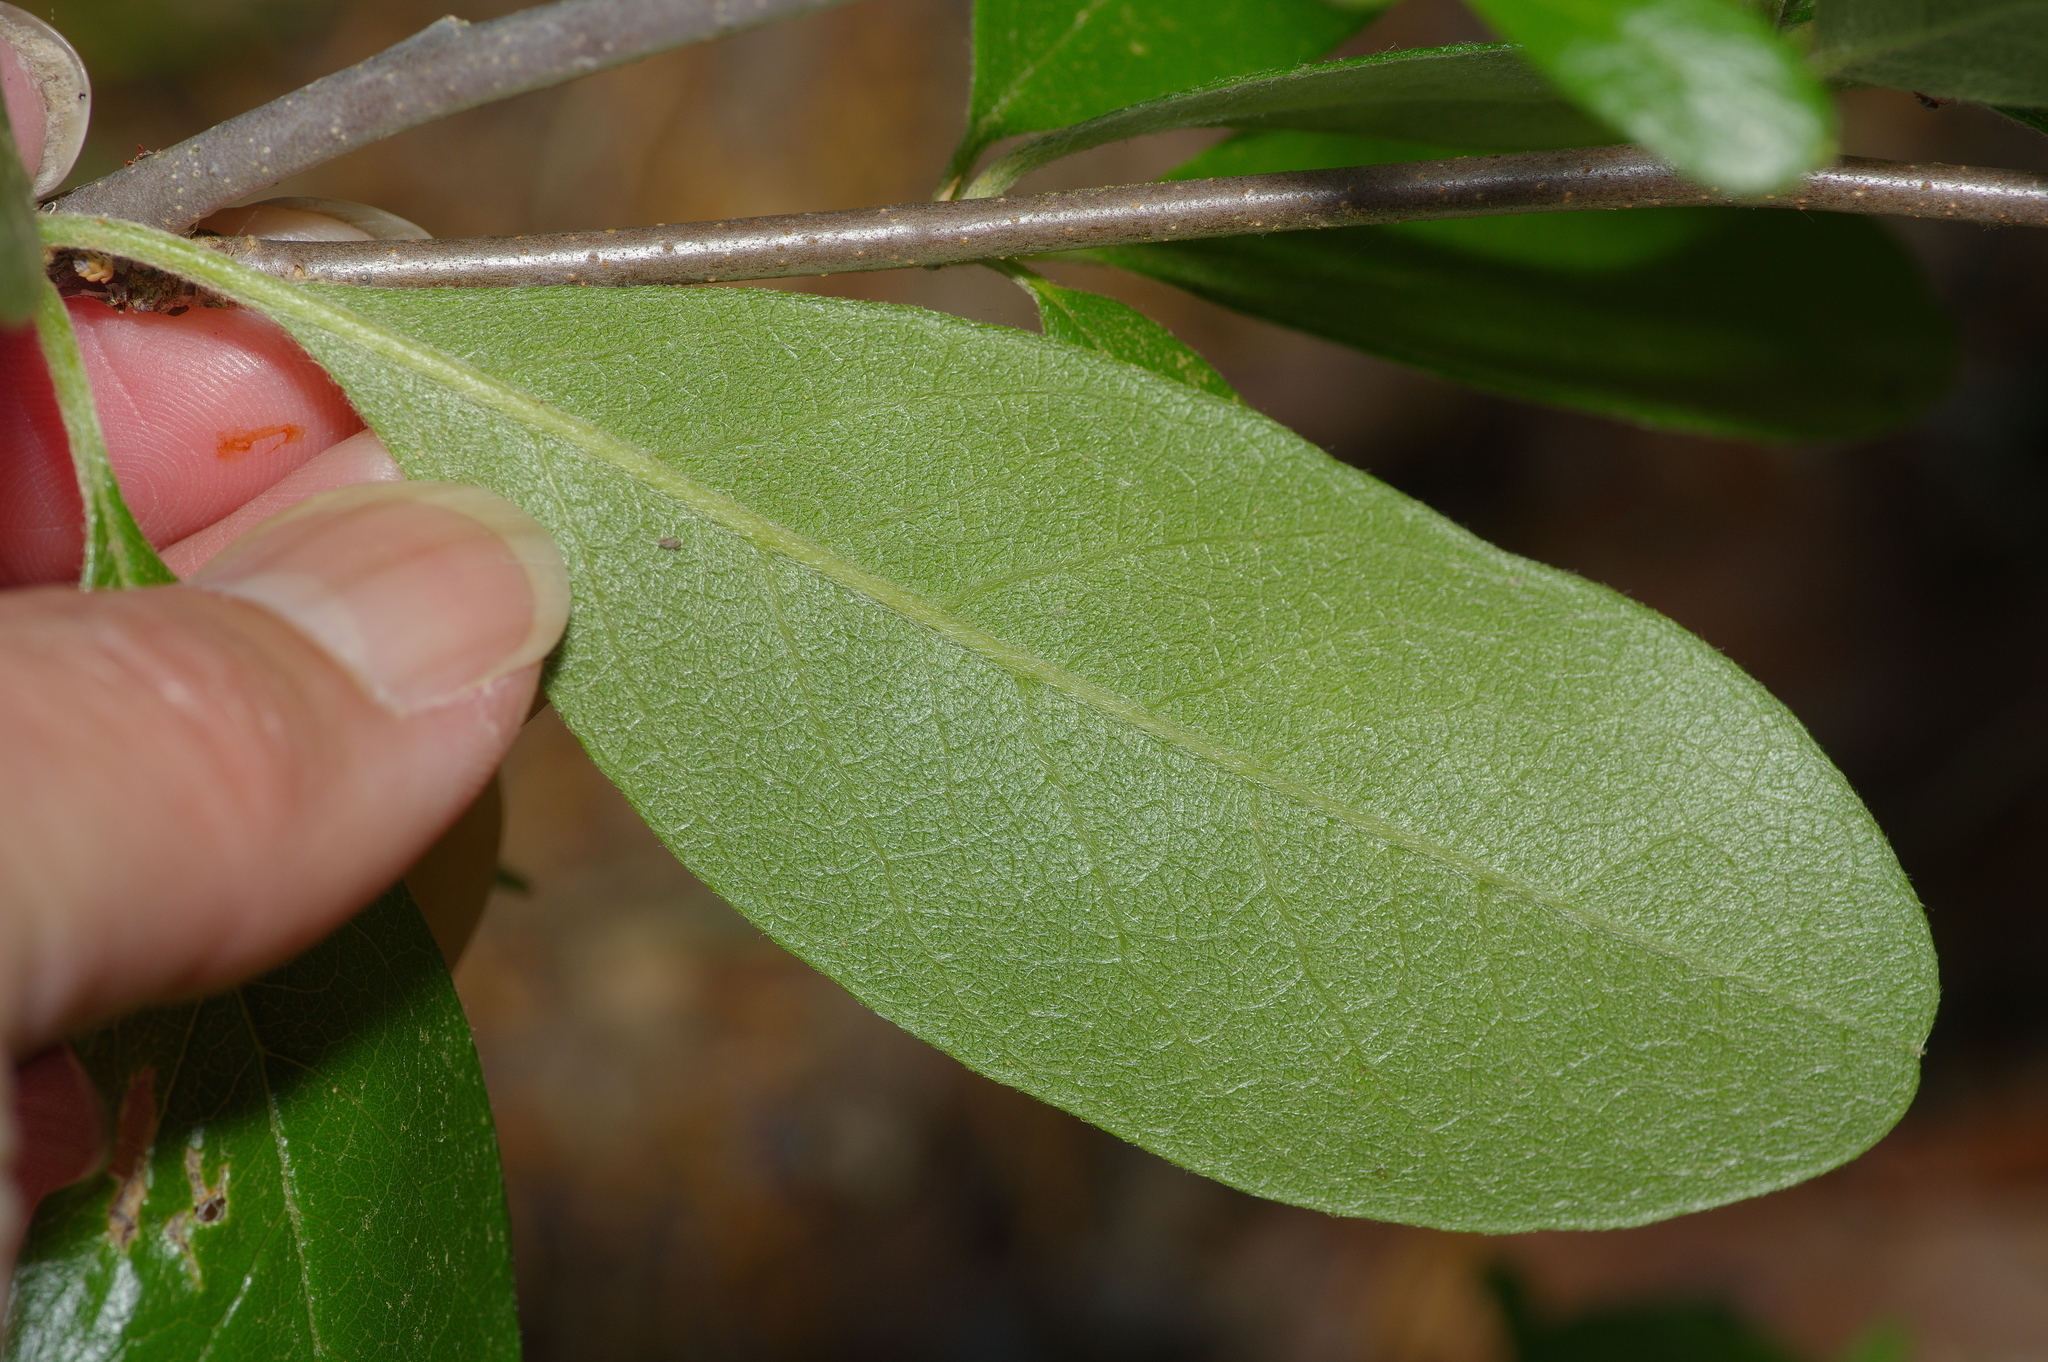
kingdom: Plantae
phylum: Tracheophyta
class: Magnoliopsida
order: Ericales
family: Sapotaceae
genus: Sideroxylon
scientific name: Sideroxylon lanuginosum
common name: Chittamwood
